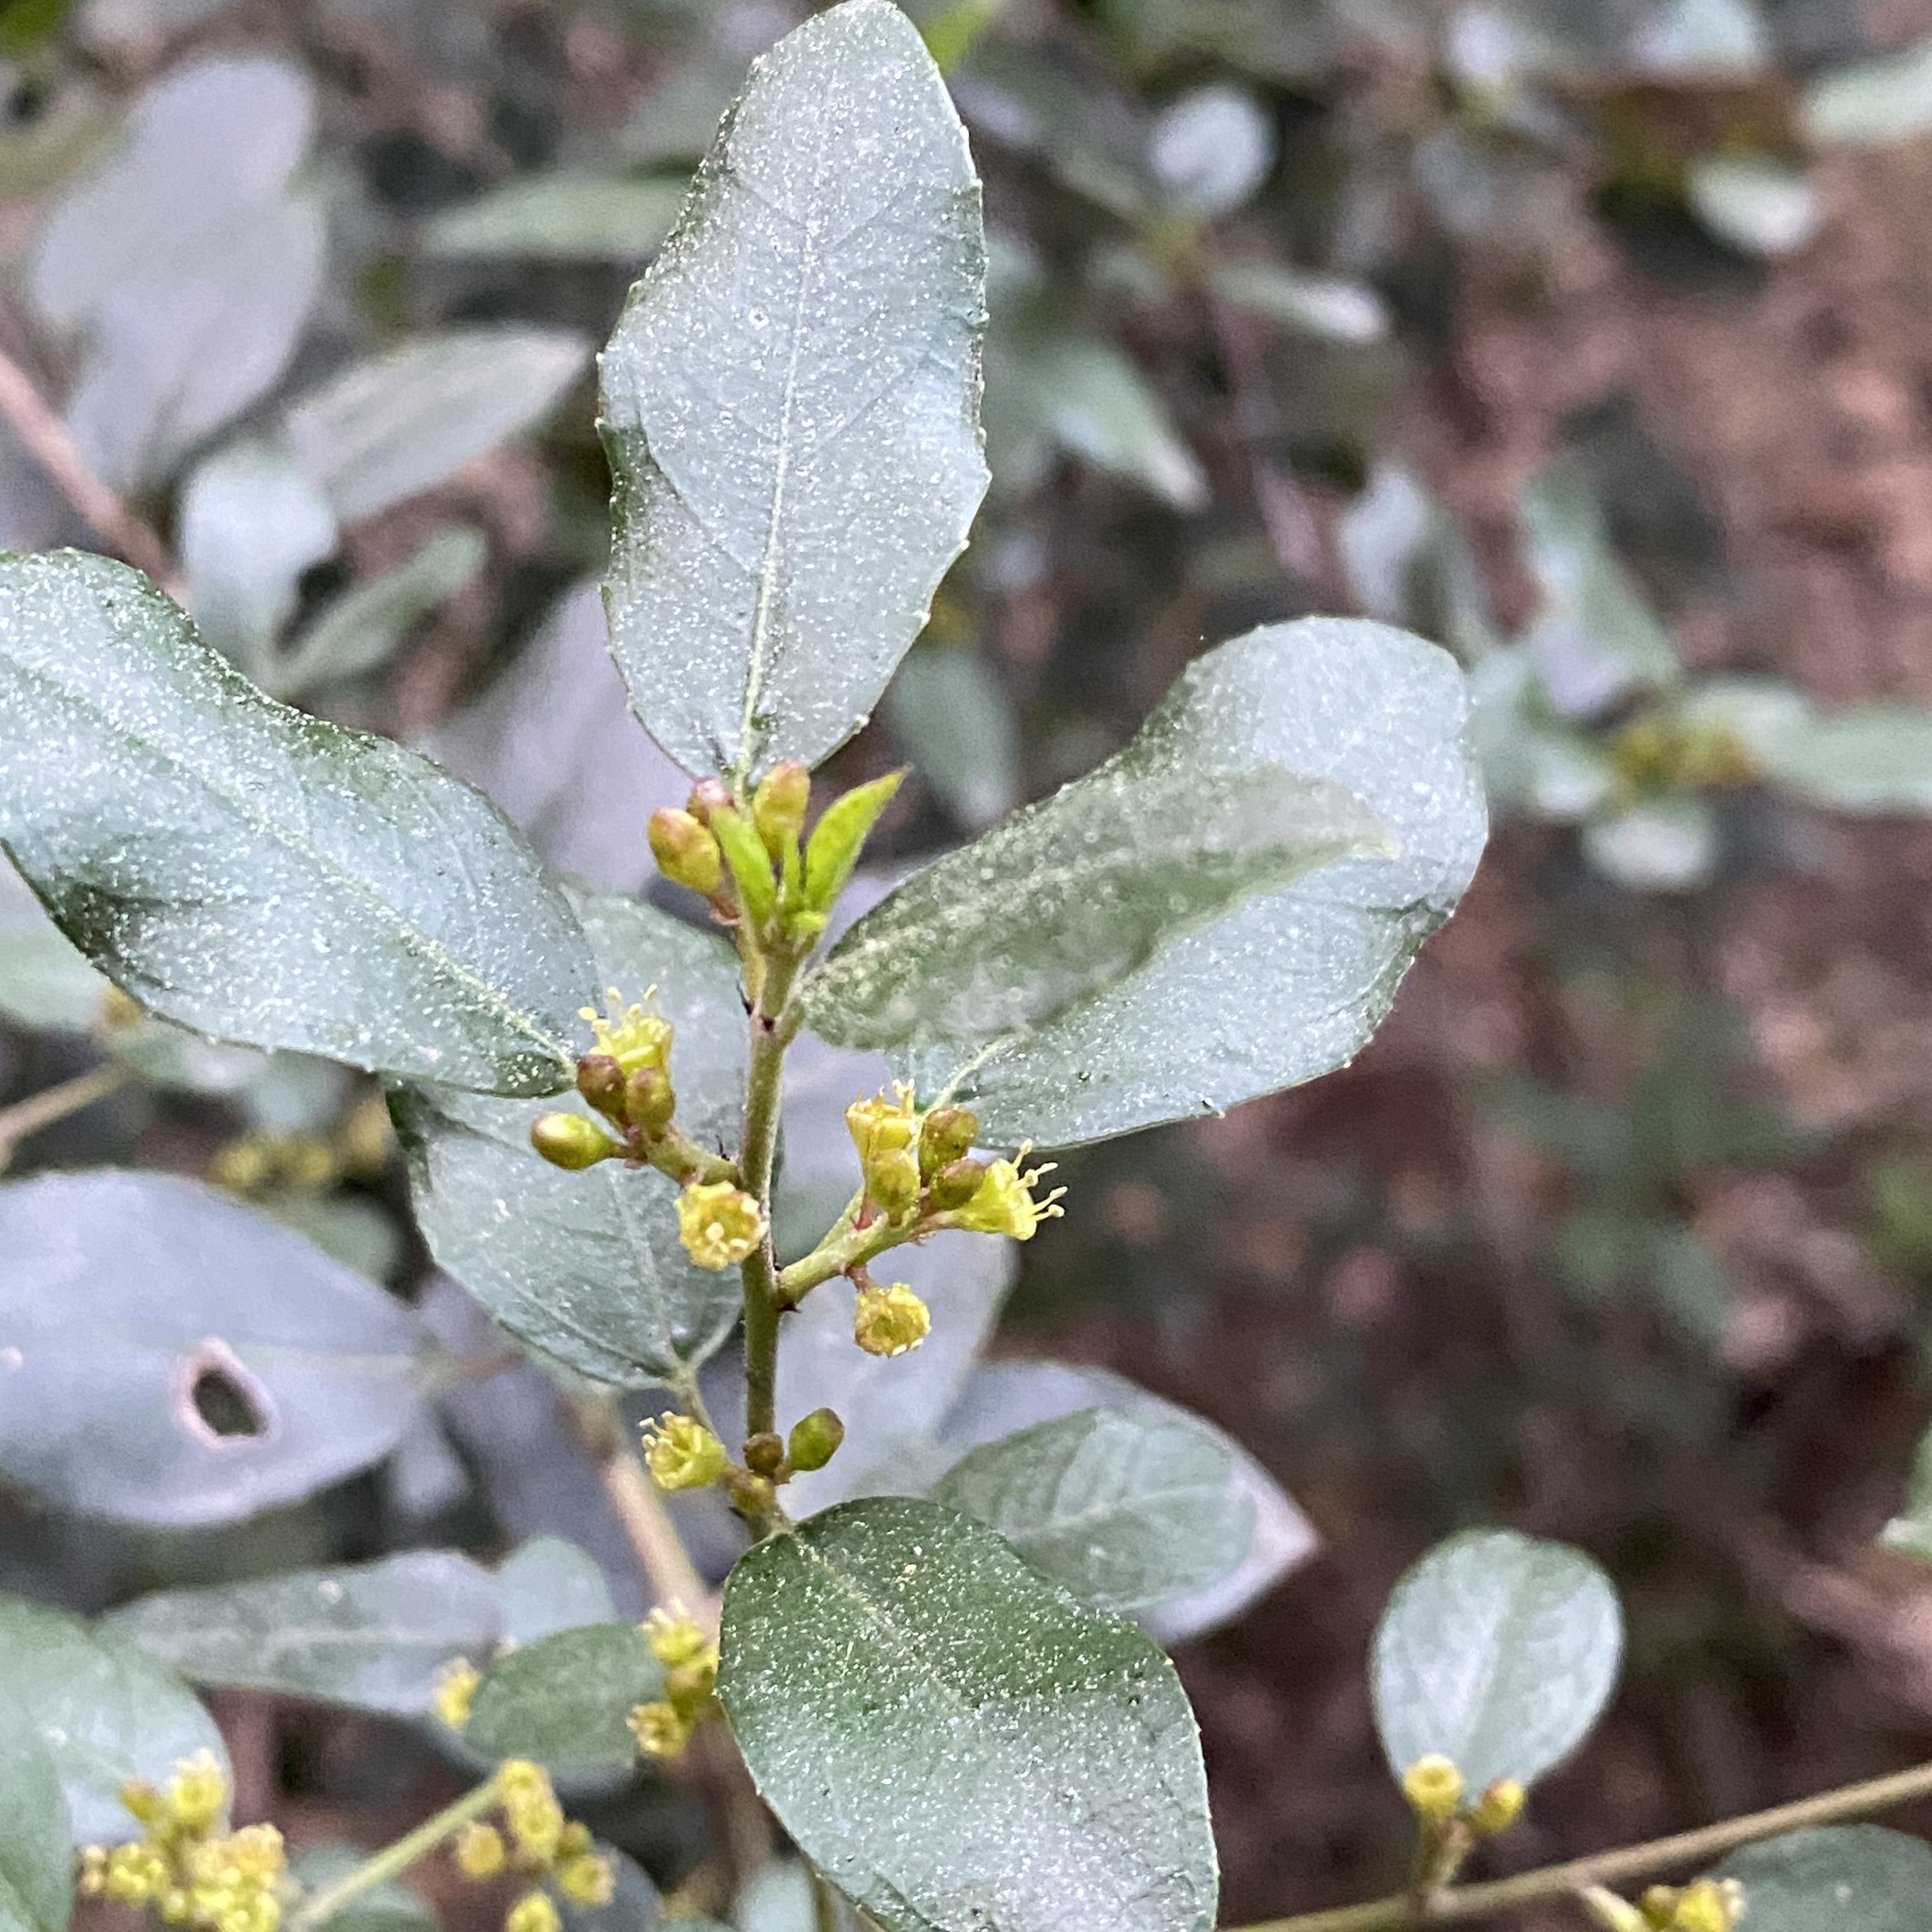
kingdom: Plantae
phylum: Tracheophyta
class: Magnoliopsida
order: Rosales
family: Rhamnaceae
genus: Rhamnus
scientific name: Rhamnus alaternus
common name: Mediterranean buckthorn
